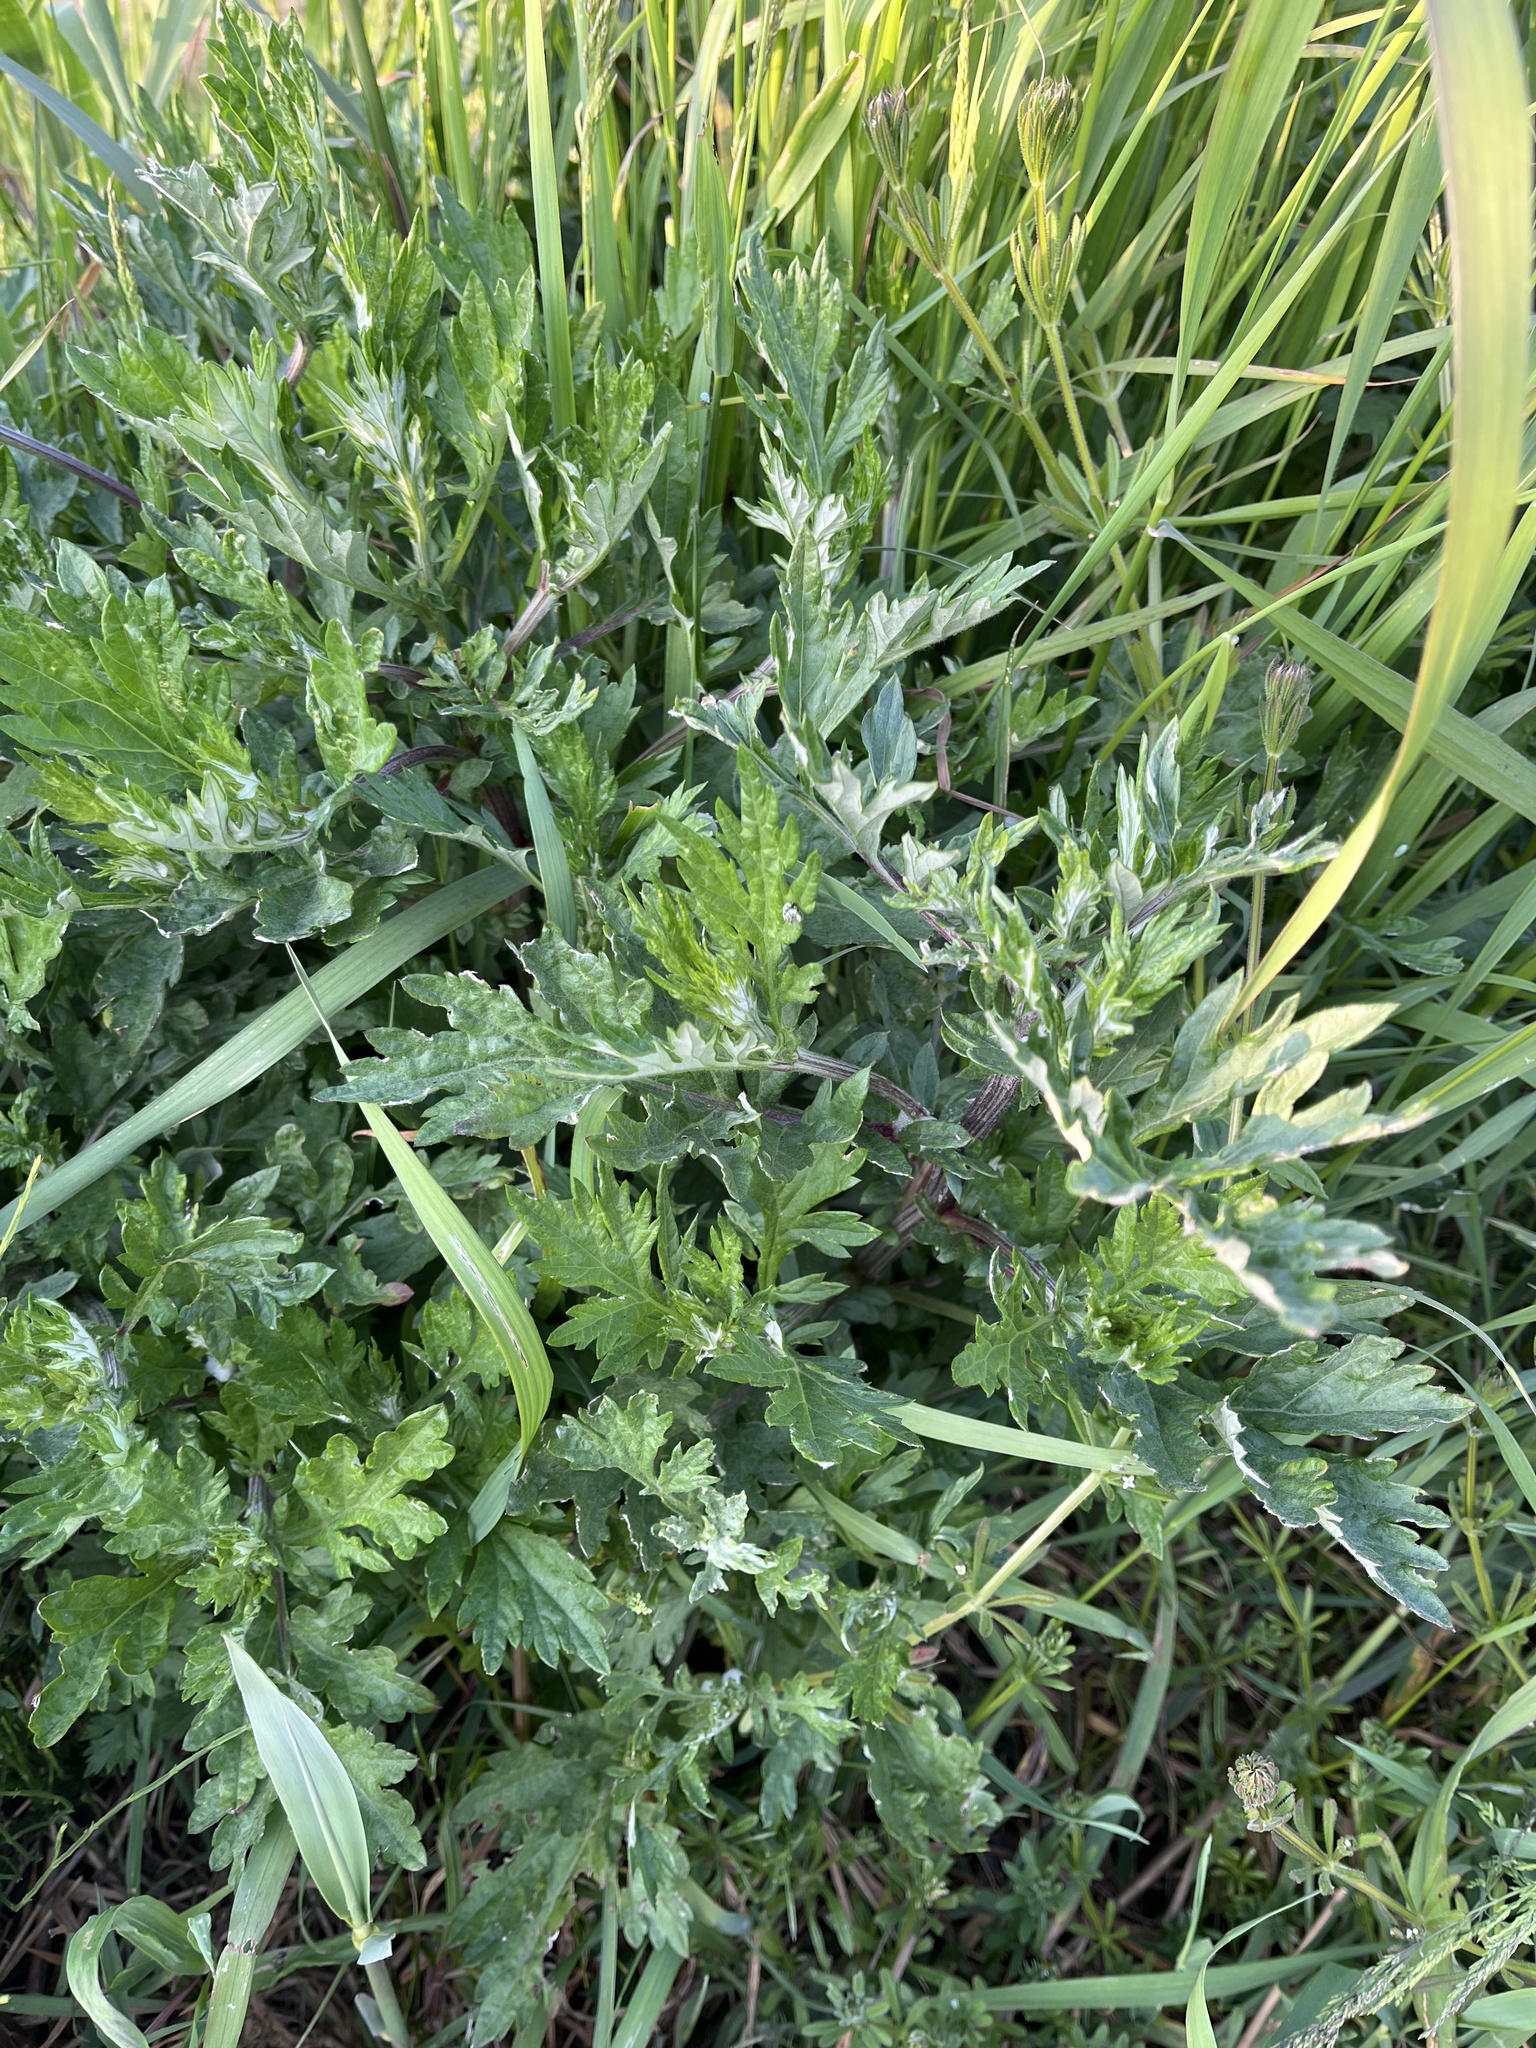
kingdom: Plantae
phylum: Tracheophyta
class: Magnoliopsida
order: Asterales
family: Asteraceae
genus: Artemisia
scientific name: Artemisia vulgaris
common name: Mugwort
